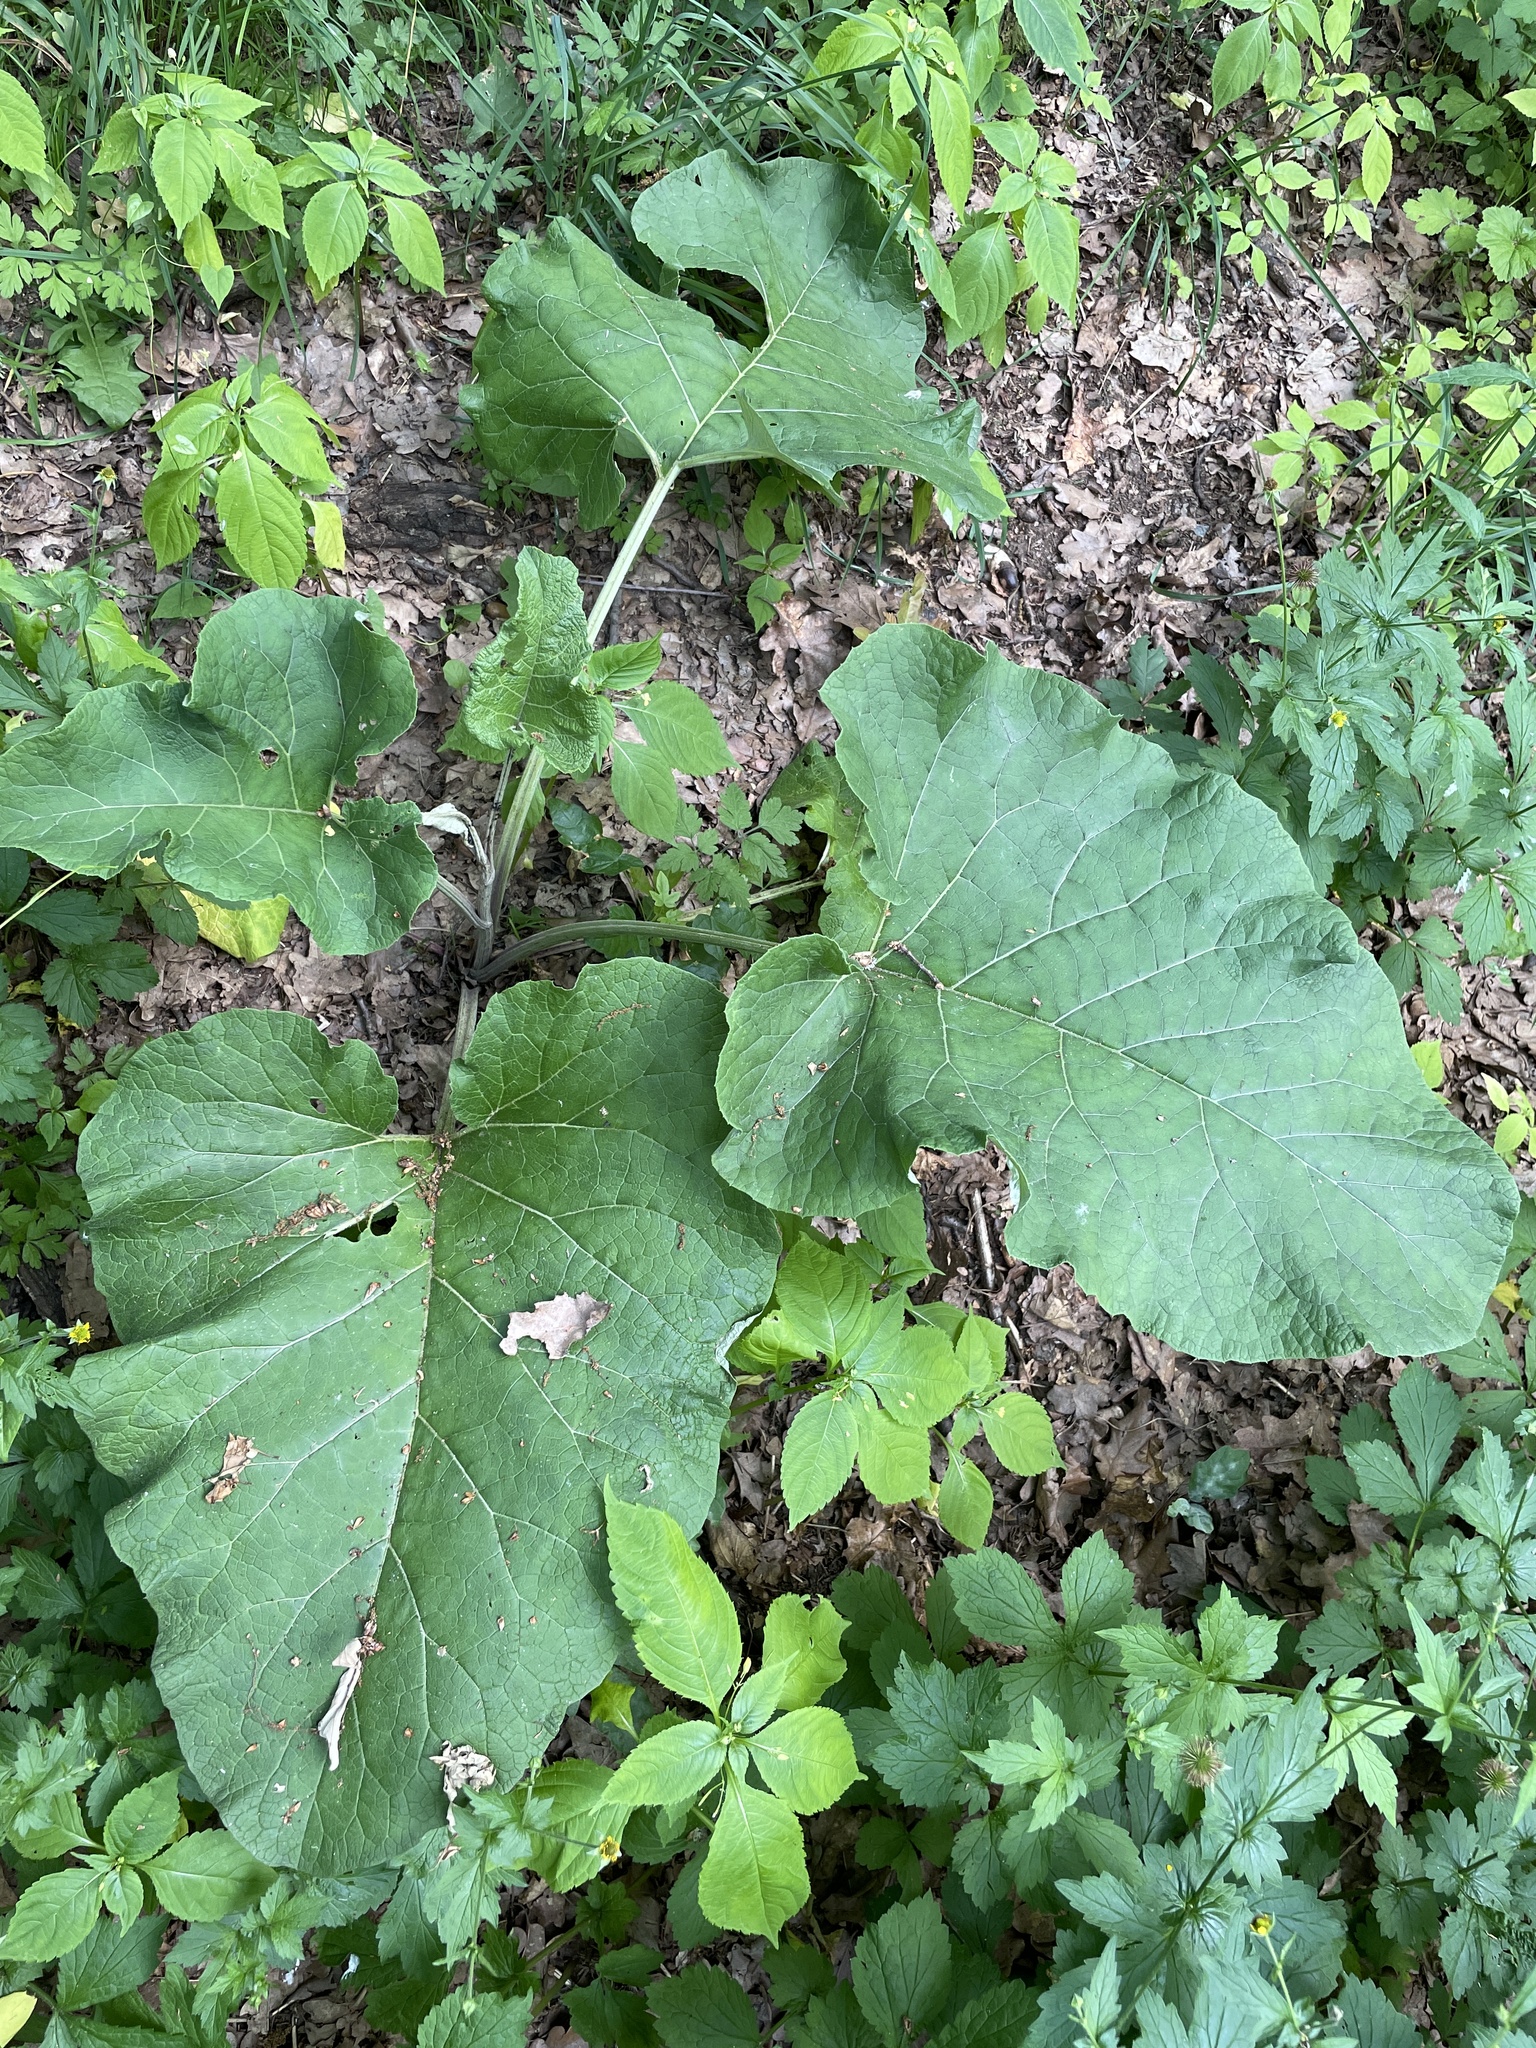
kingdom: Plantae
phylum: Tracheophyta
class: Magnoliopsida
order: Asterales
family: Asteraceae
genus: Arctium
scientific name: Arctium
